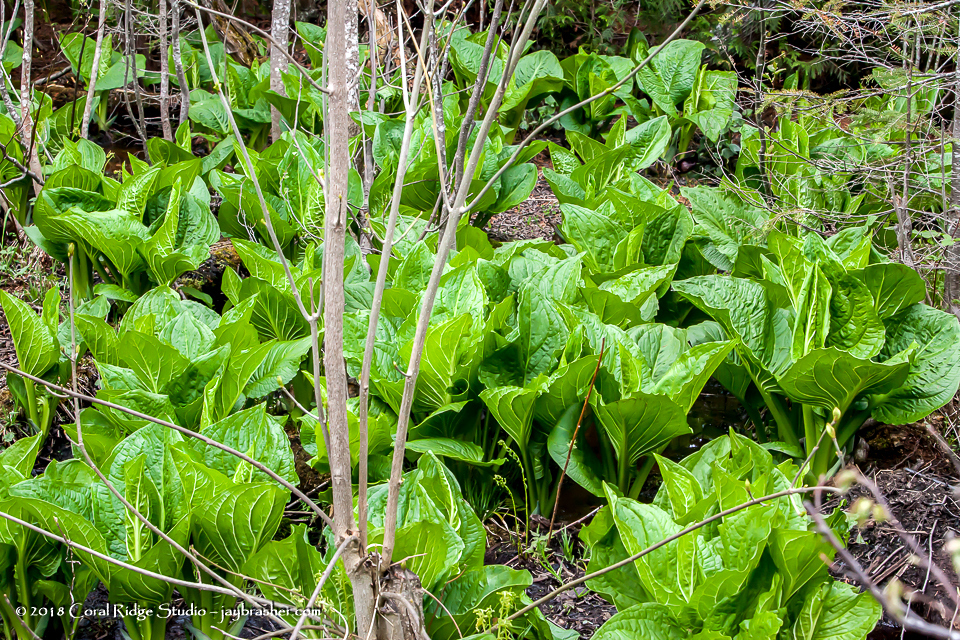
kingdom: Plantae
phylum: Tracheophyta
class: Liliopsida
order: Alismatales
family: Araceae
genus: Symplocarpus
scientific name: Symplocarpus foetidus
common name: Eastern skunk cabbage
